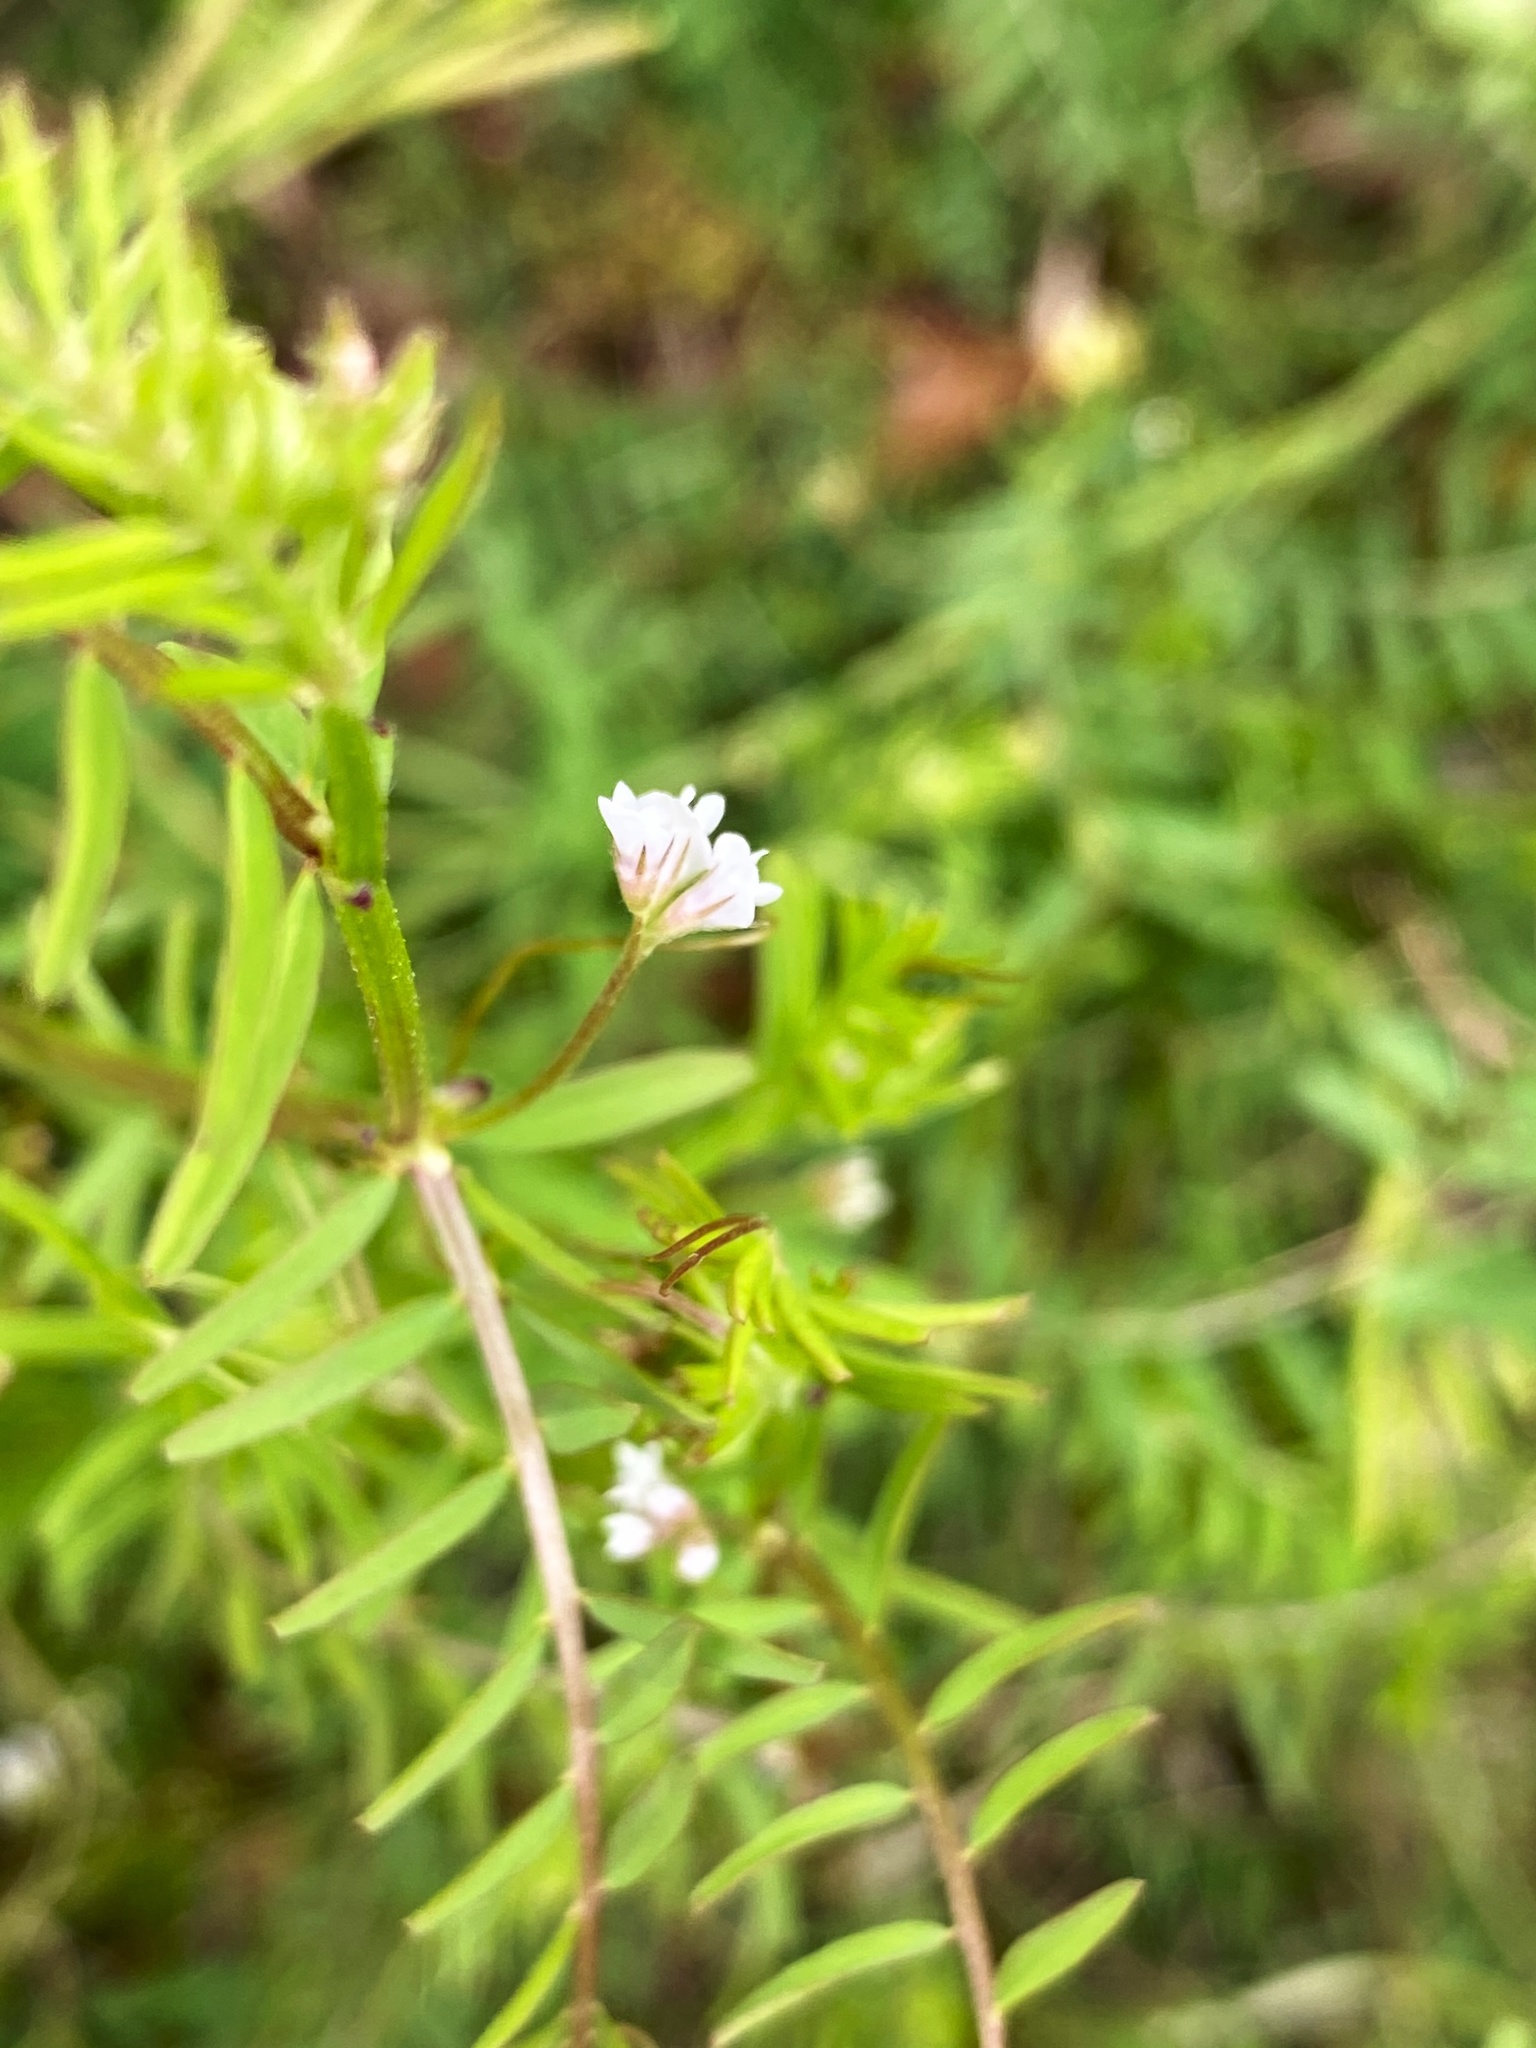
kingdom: Plantae
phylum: Tracheophyta
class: Magnoliopsida
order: Fabales
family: Fabaceae
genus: Vicia
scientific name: Vicia hirsuta
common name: Tiny vetch
